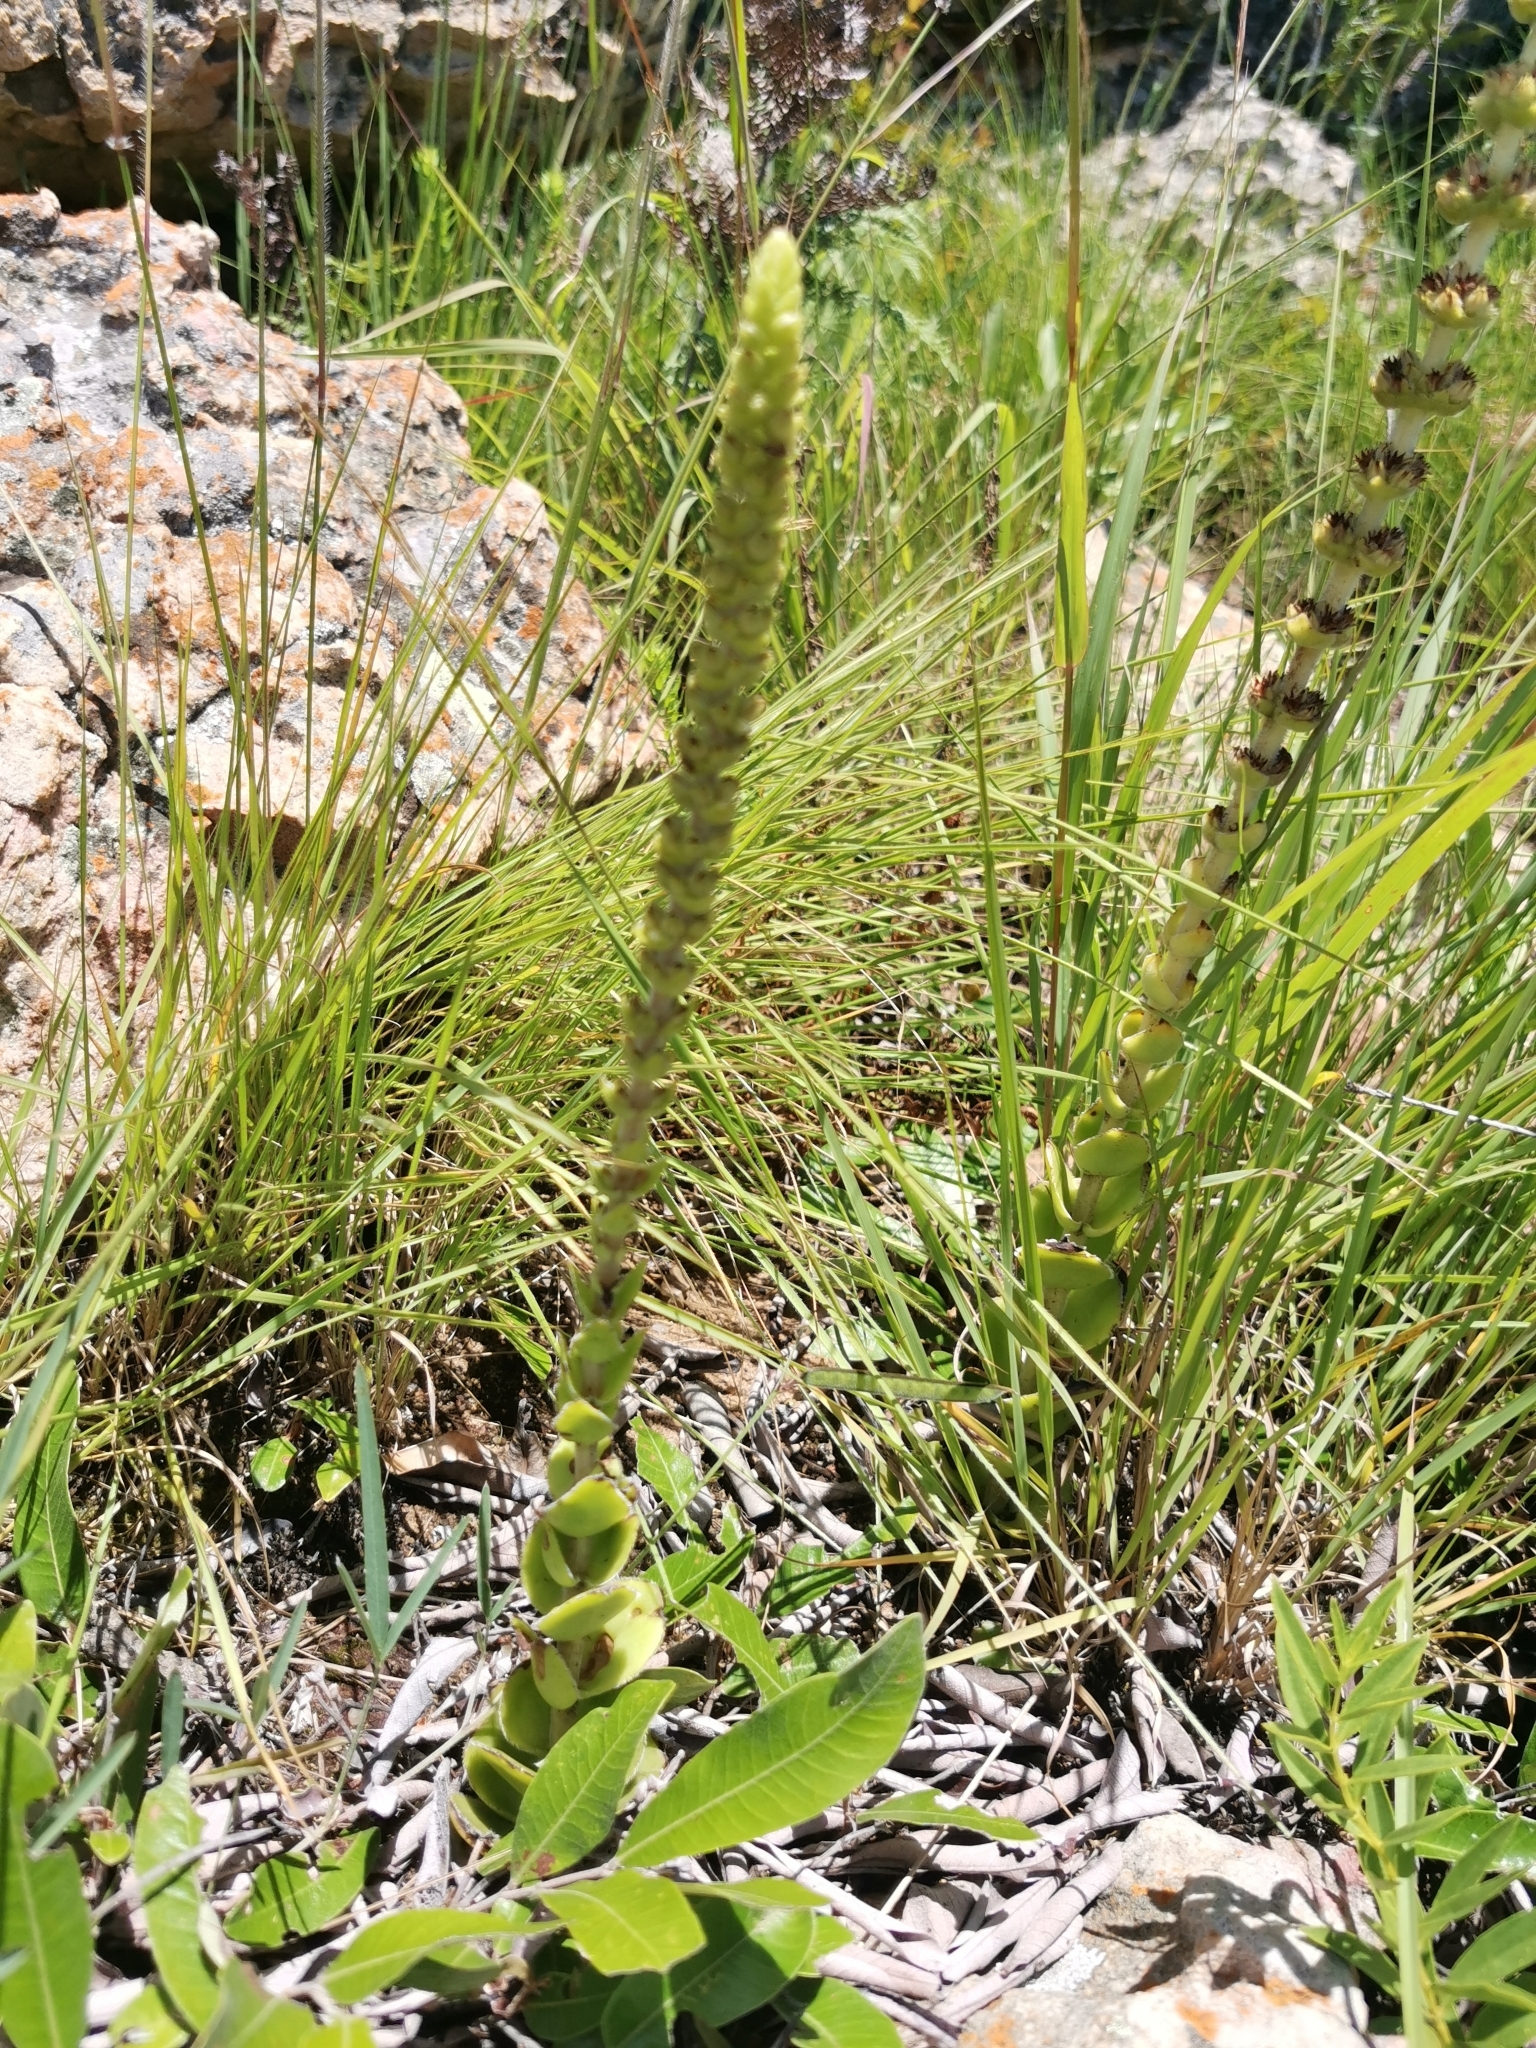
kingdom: Plantae
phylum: Tracheophyta
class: Magnoliopsida
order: Saxifragales
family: Crassulaceae
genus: Crassula
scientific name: Crassula capitella
